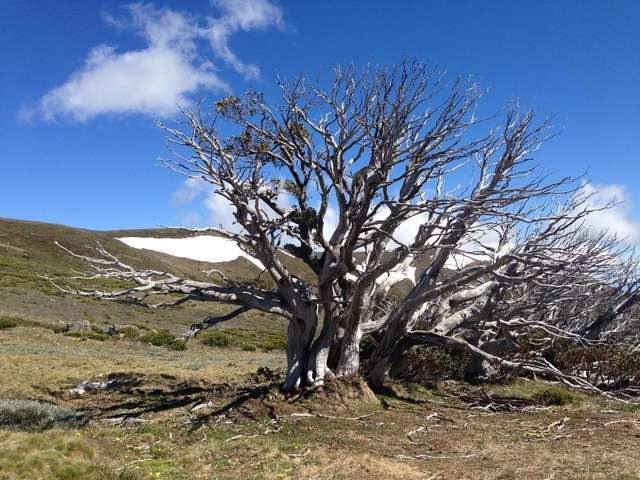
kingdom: Plantae
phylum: Tracheophyta
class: Magnoliopsida
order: Myrtales
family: Myrtaceae
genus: Eucalyptus
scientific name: Eucalyptus pauciflora
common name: Snow gum
